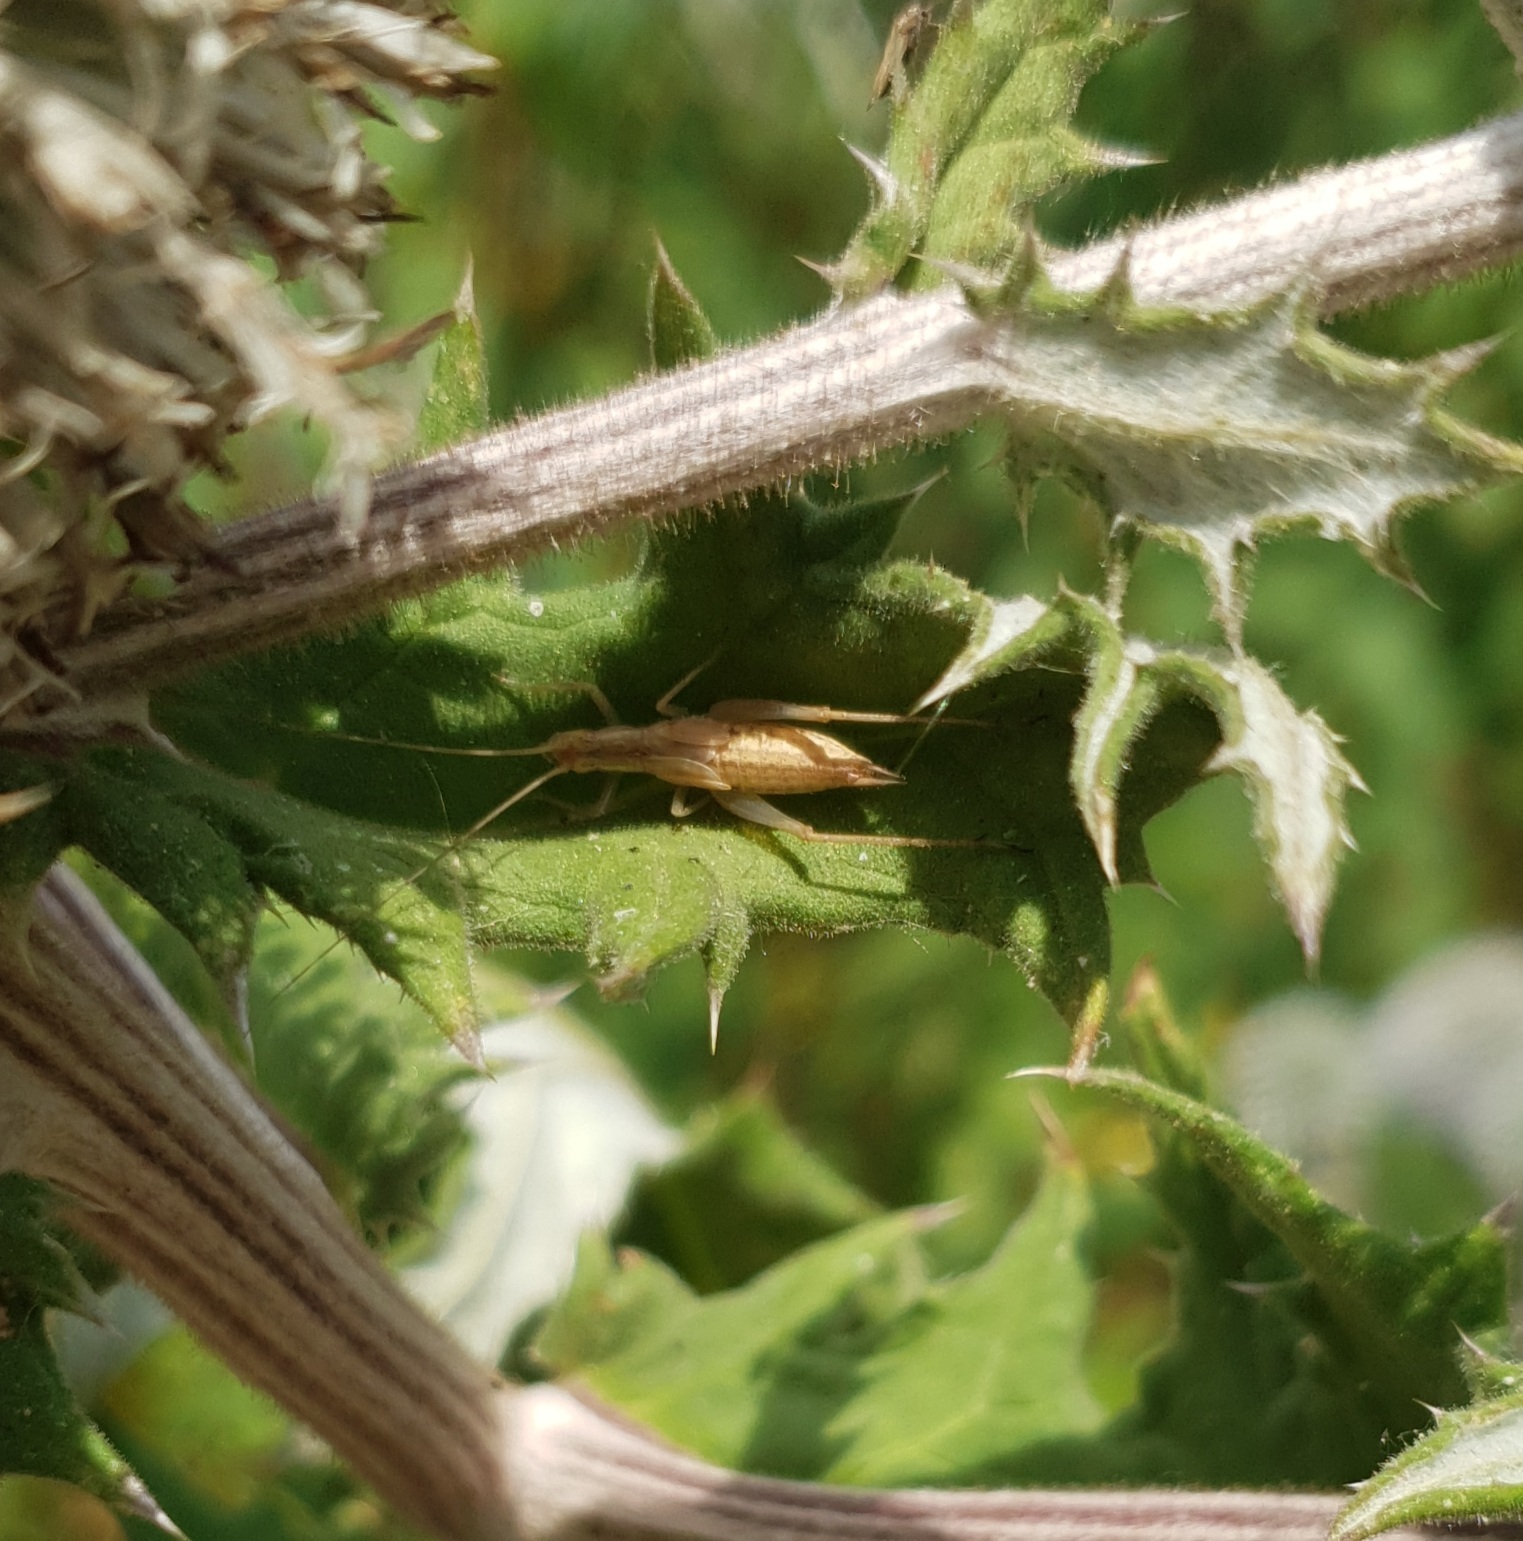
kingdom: Animalia
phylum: Arthropoda
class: Insecta
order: Orthoptera
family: Gryllidae
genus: Oecanthus
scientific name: Oecanthus pellucens
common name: Tree-cricket
